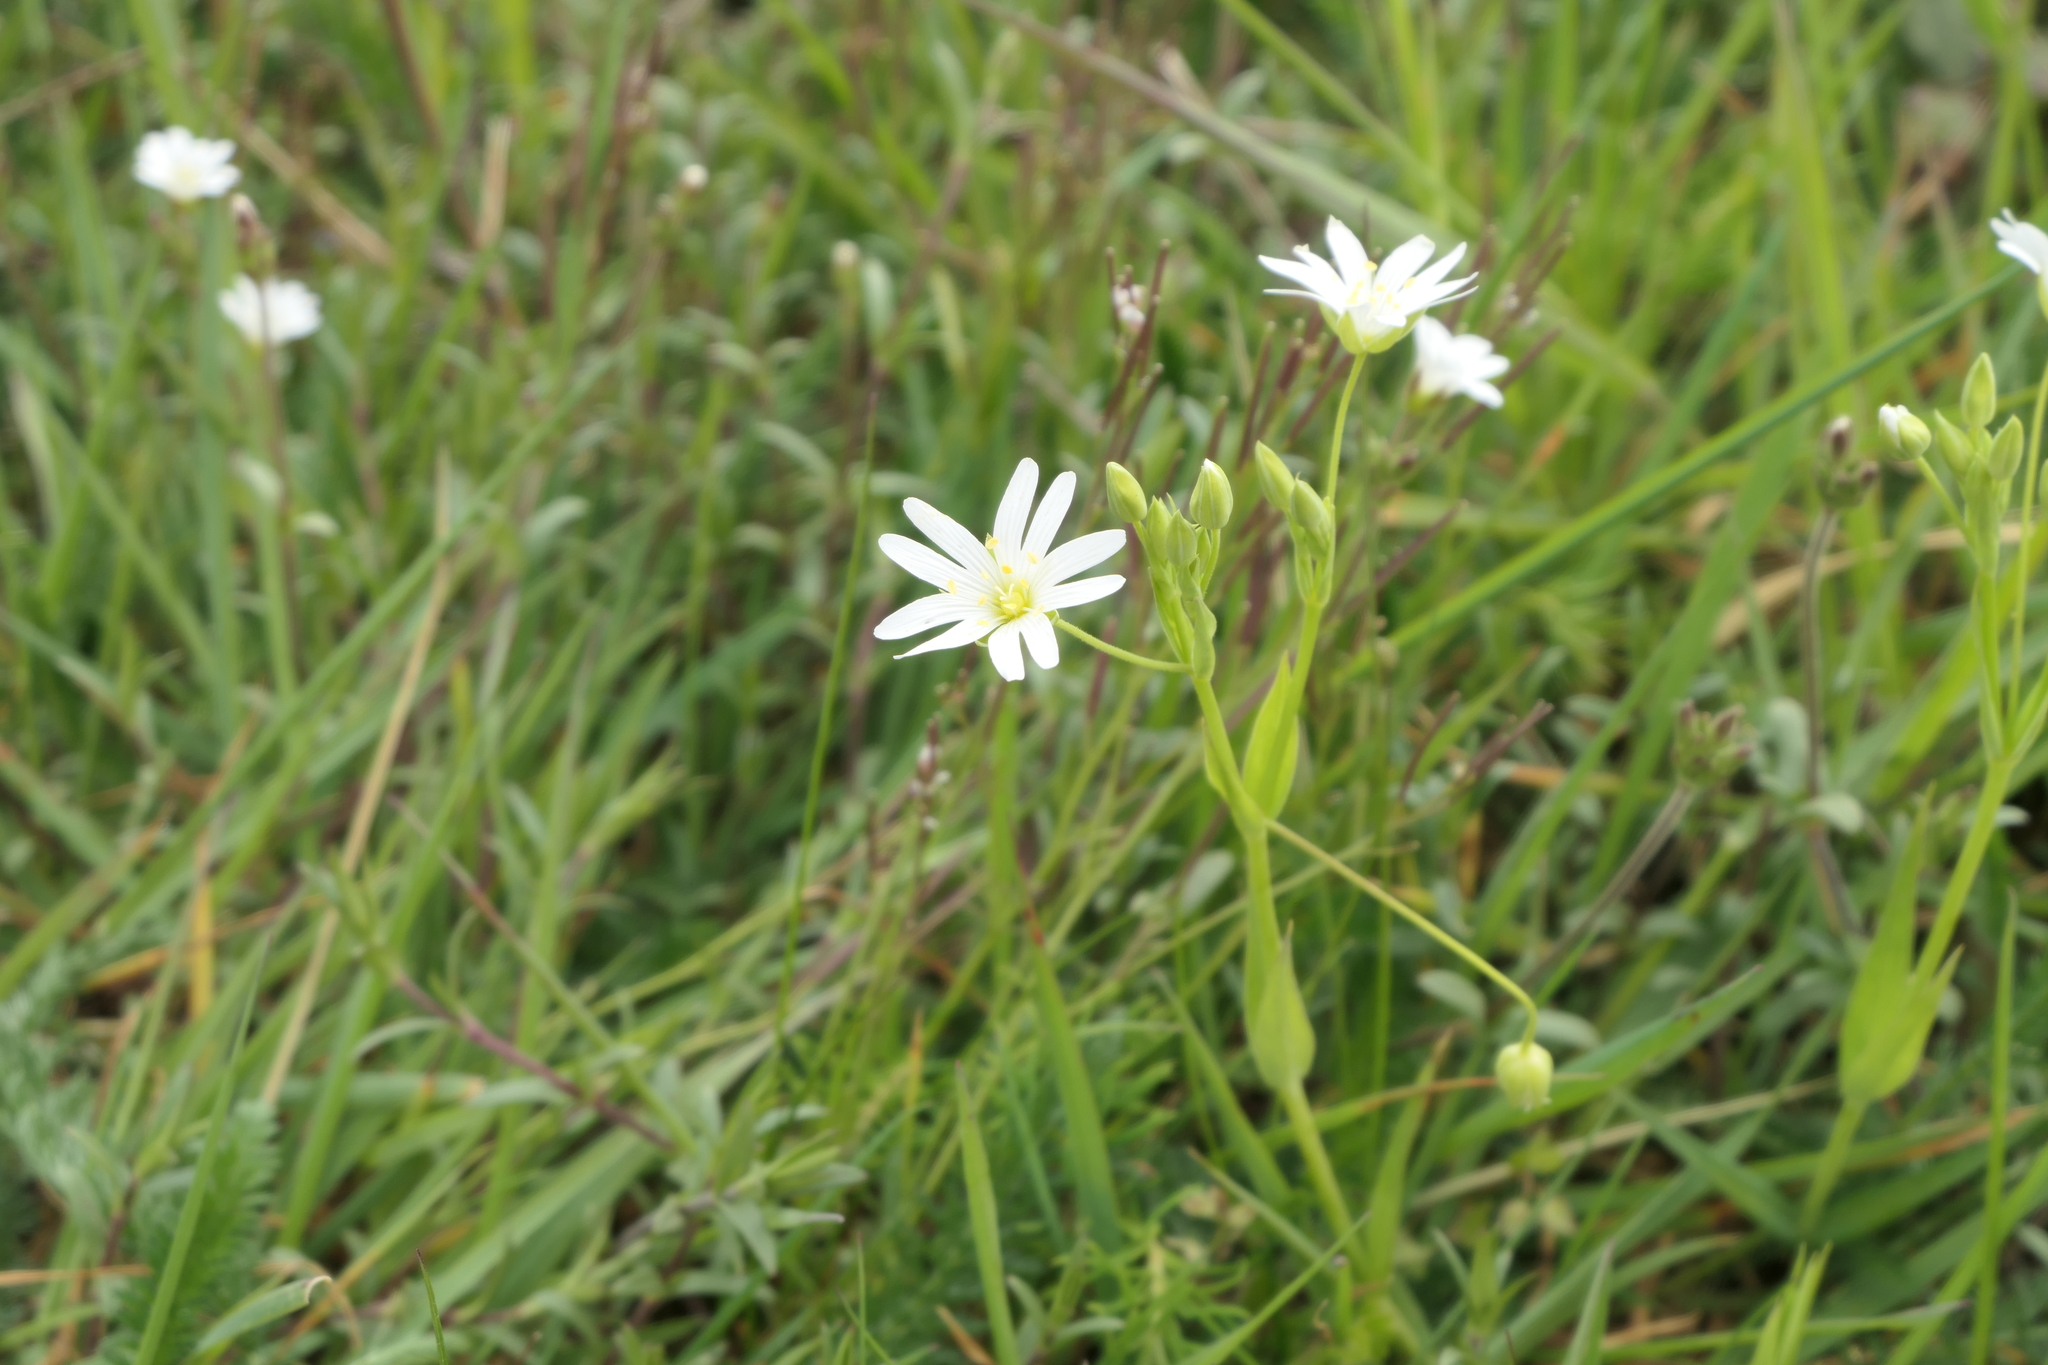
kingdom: Plantae
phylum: Tracheophyta
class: Magnoliopsida
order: Caryophyllales
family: Caryophyllaceae
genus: Stellaria
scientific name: Stellaria graminea
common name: Grass-like starwort
